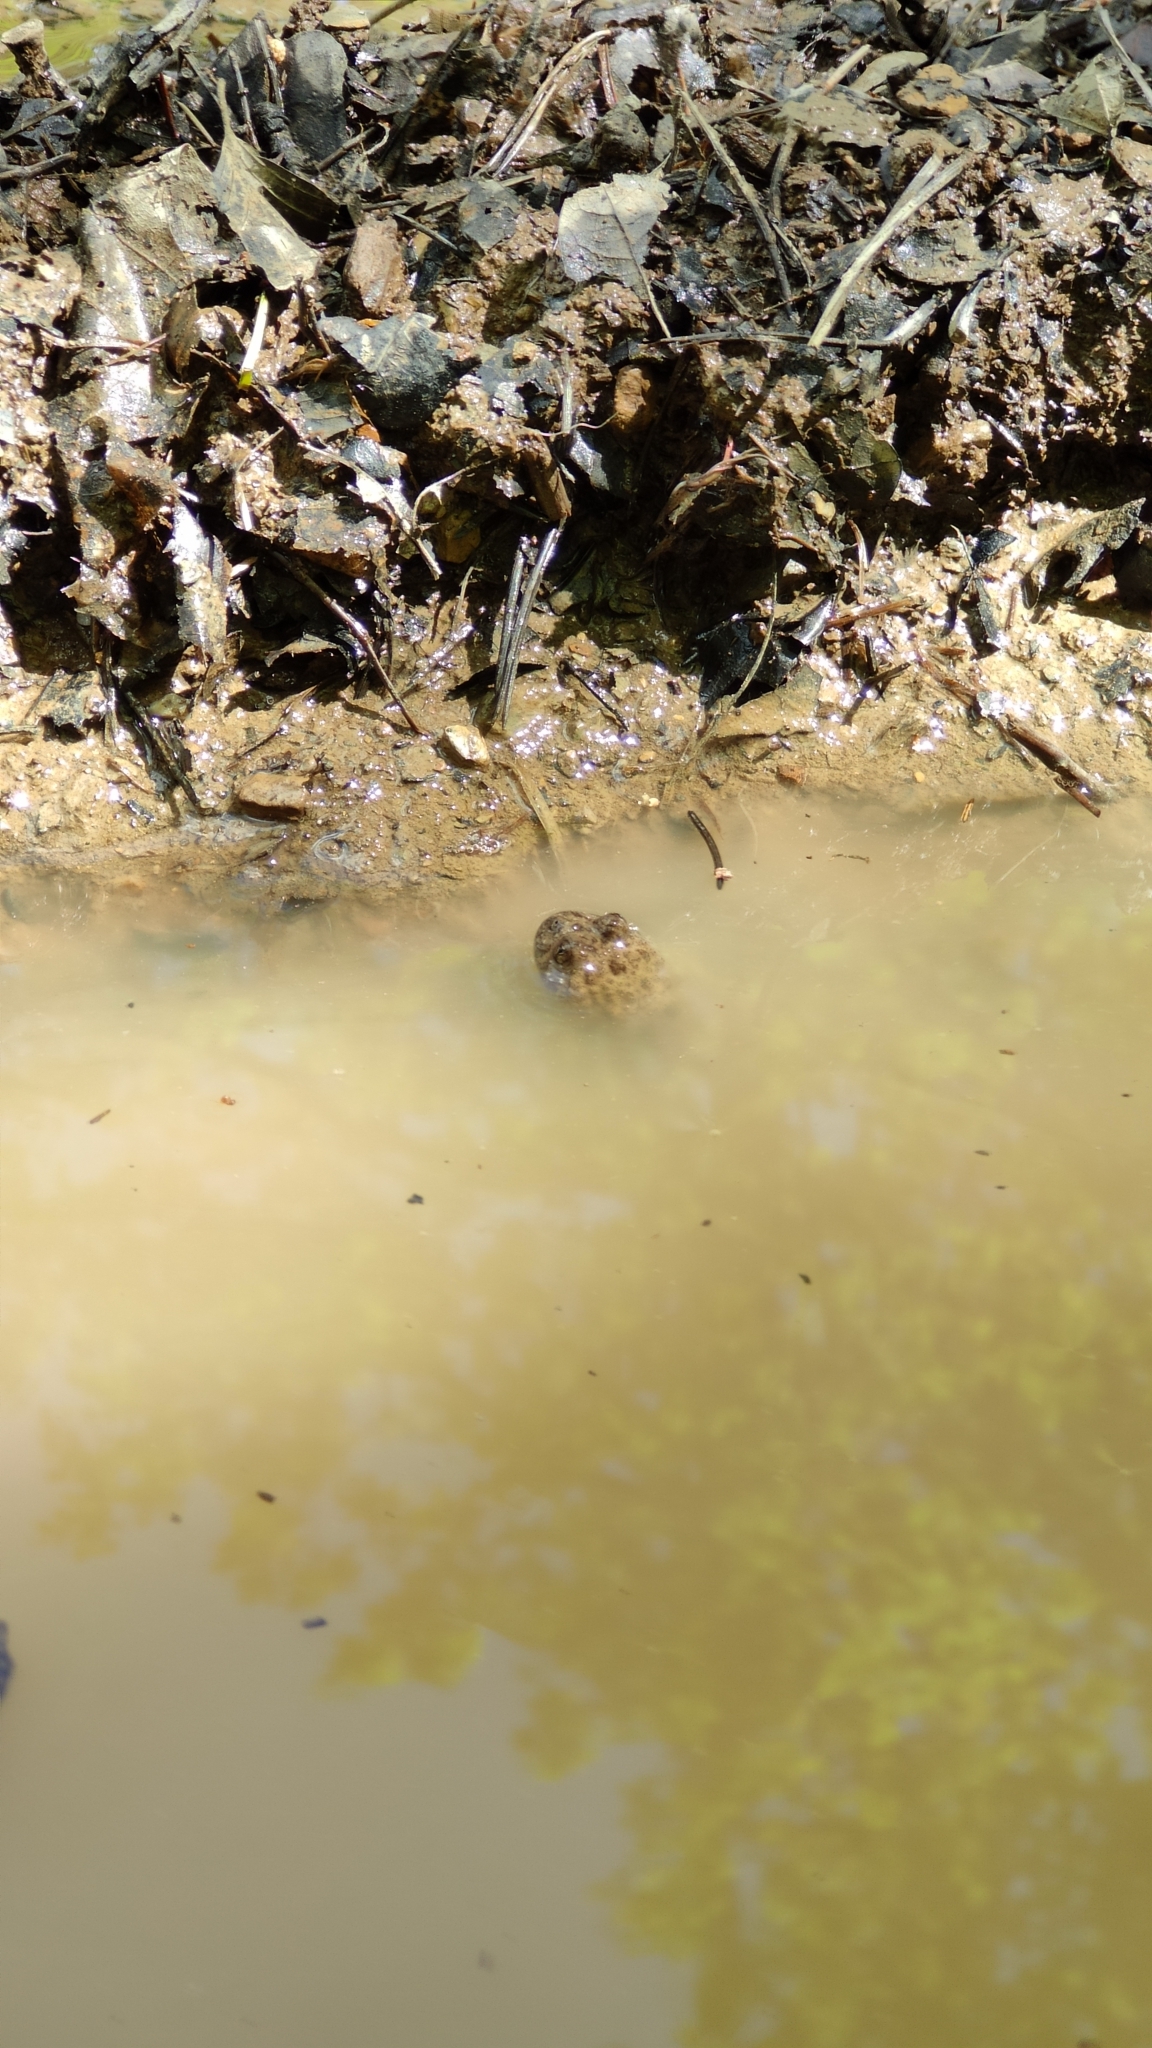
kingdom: Animalia
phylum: Chordata
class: Amphibia
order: Anura
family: Bombinatoridae
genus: Bombina
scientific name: Bombina variegata
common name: Yellow-bellied toad
